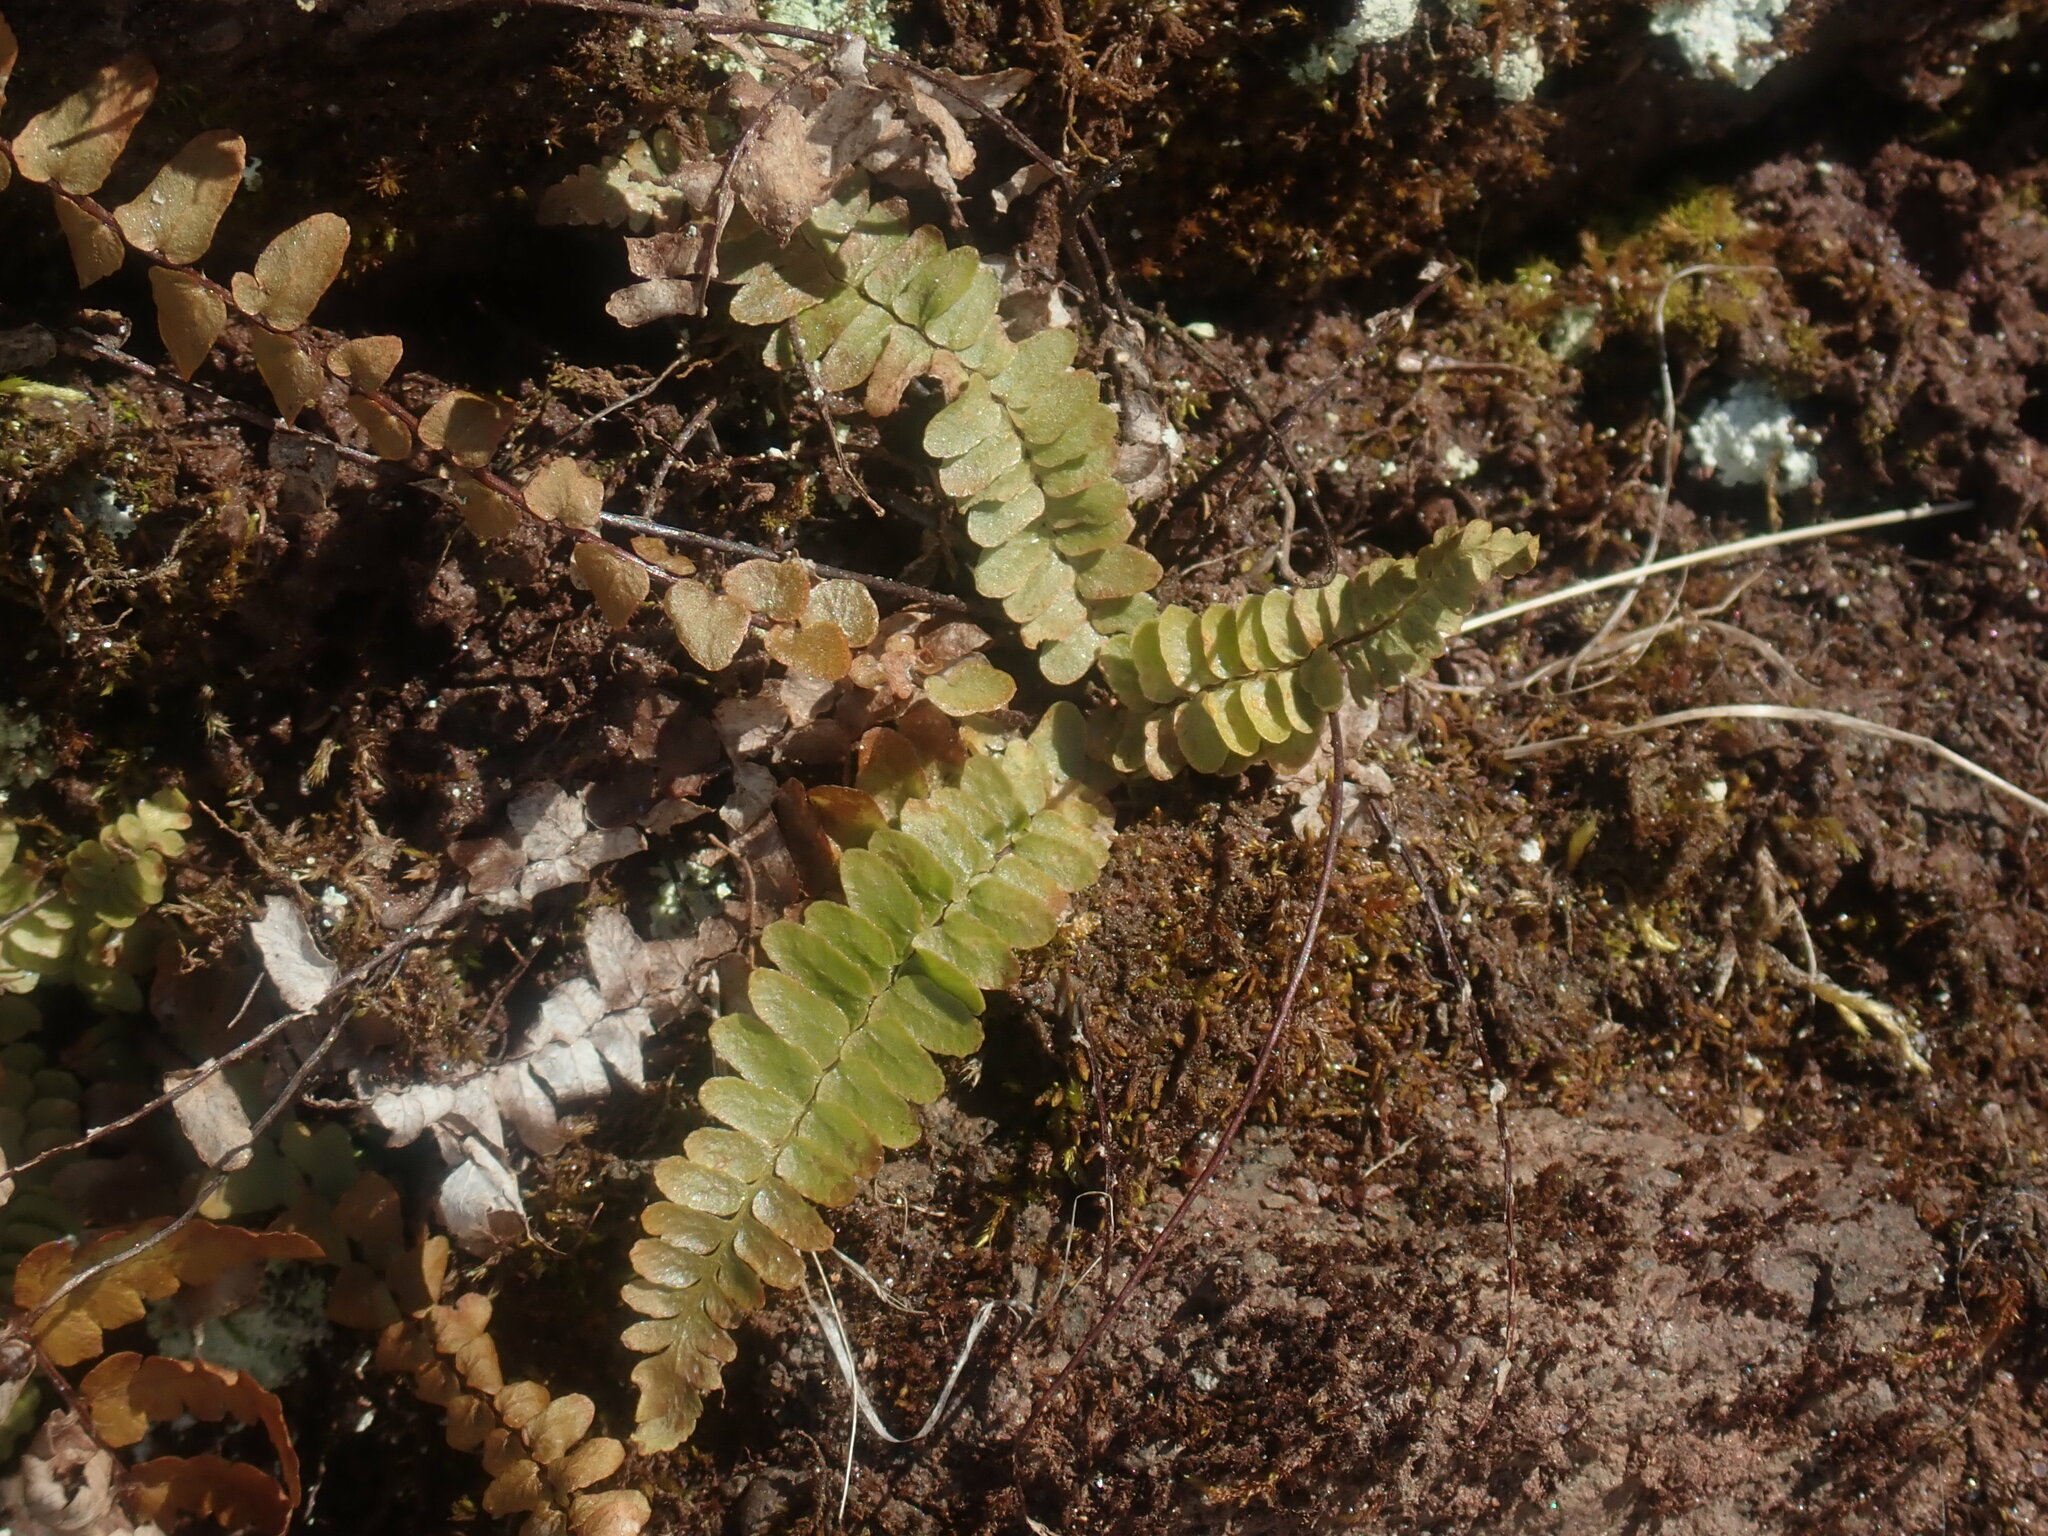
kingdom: Plantae
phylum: Tracheophyta
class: Polypodiopsida
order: Polypodiales
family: Aspleniaceae
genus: Asplenium
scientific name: Asplenium platyneuron
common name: Ebony spleenwort
